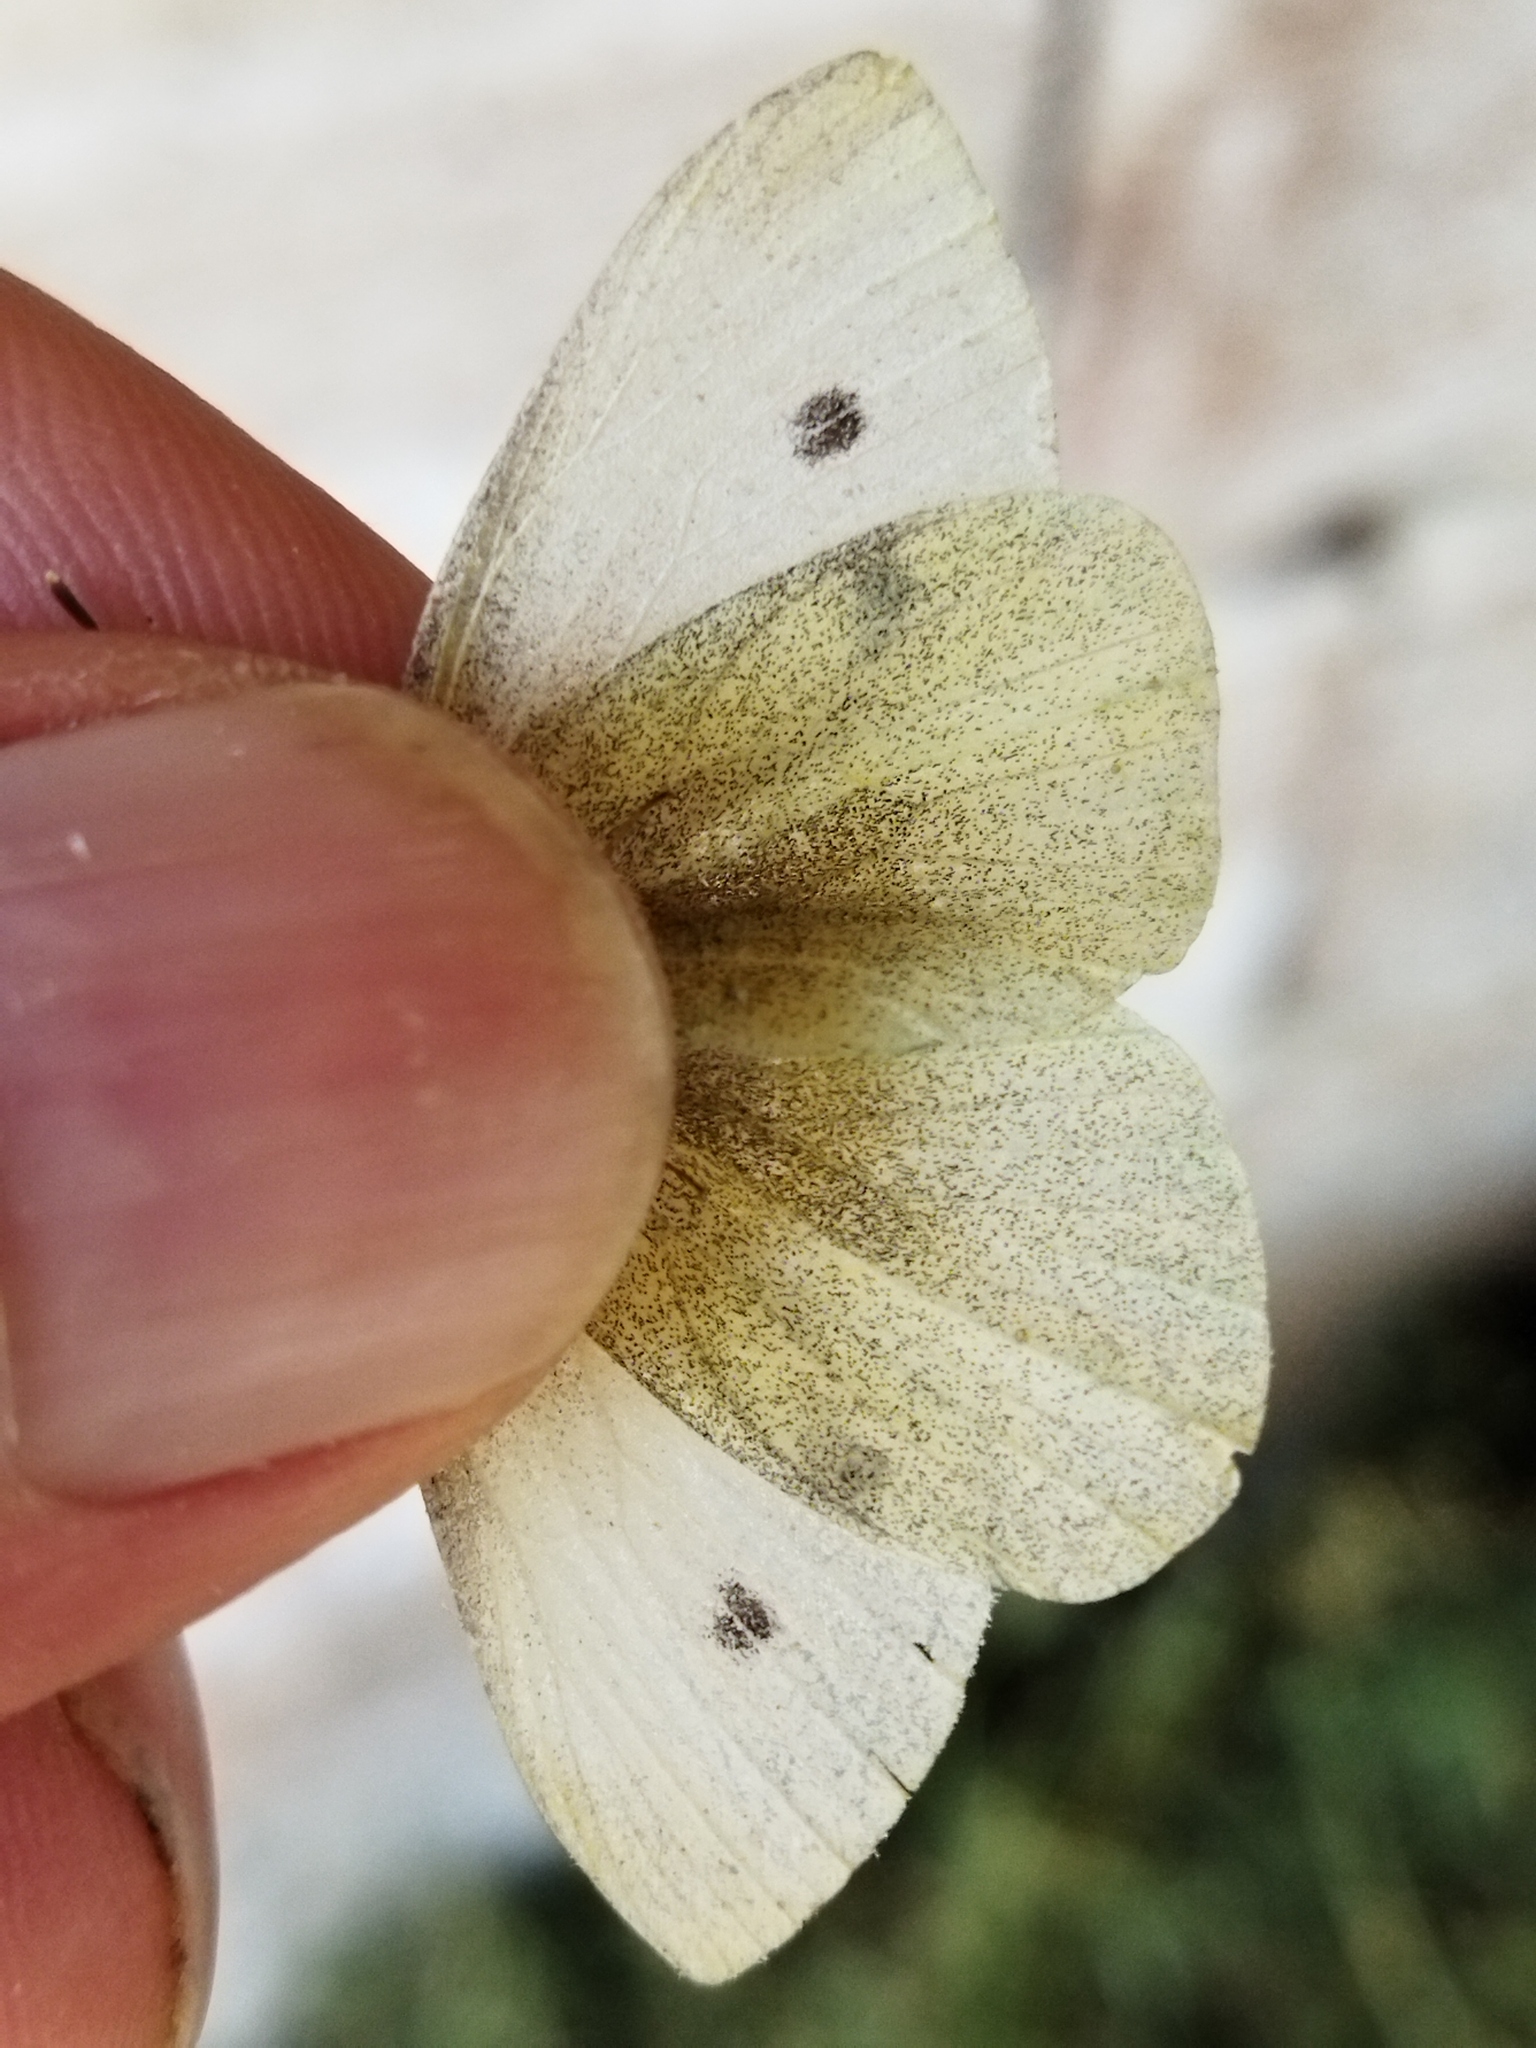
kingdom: Animalia
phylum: Arthropoda
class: Insecta
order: Lepidoptera
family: Pieridae
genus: Pieris
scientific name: Pieris rapae
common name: Small white
